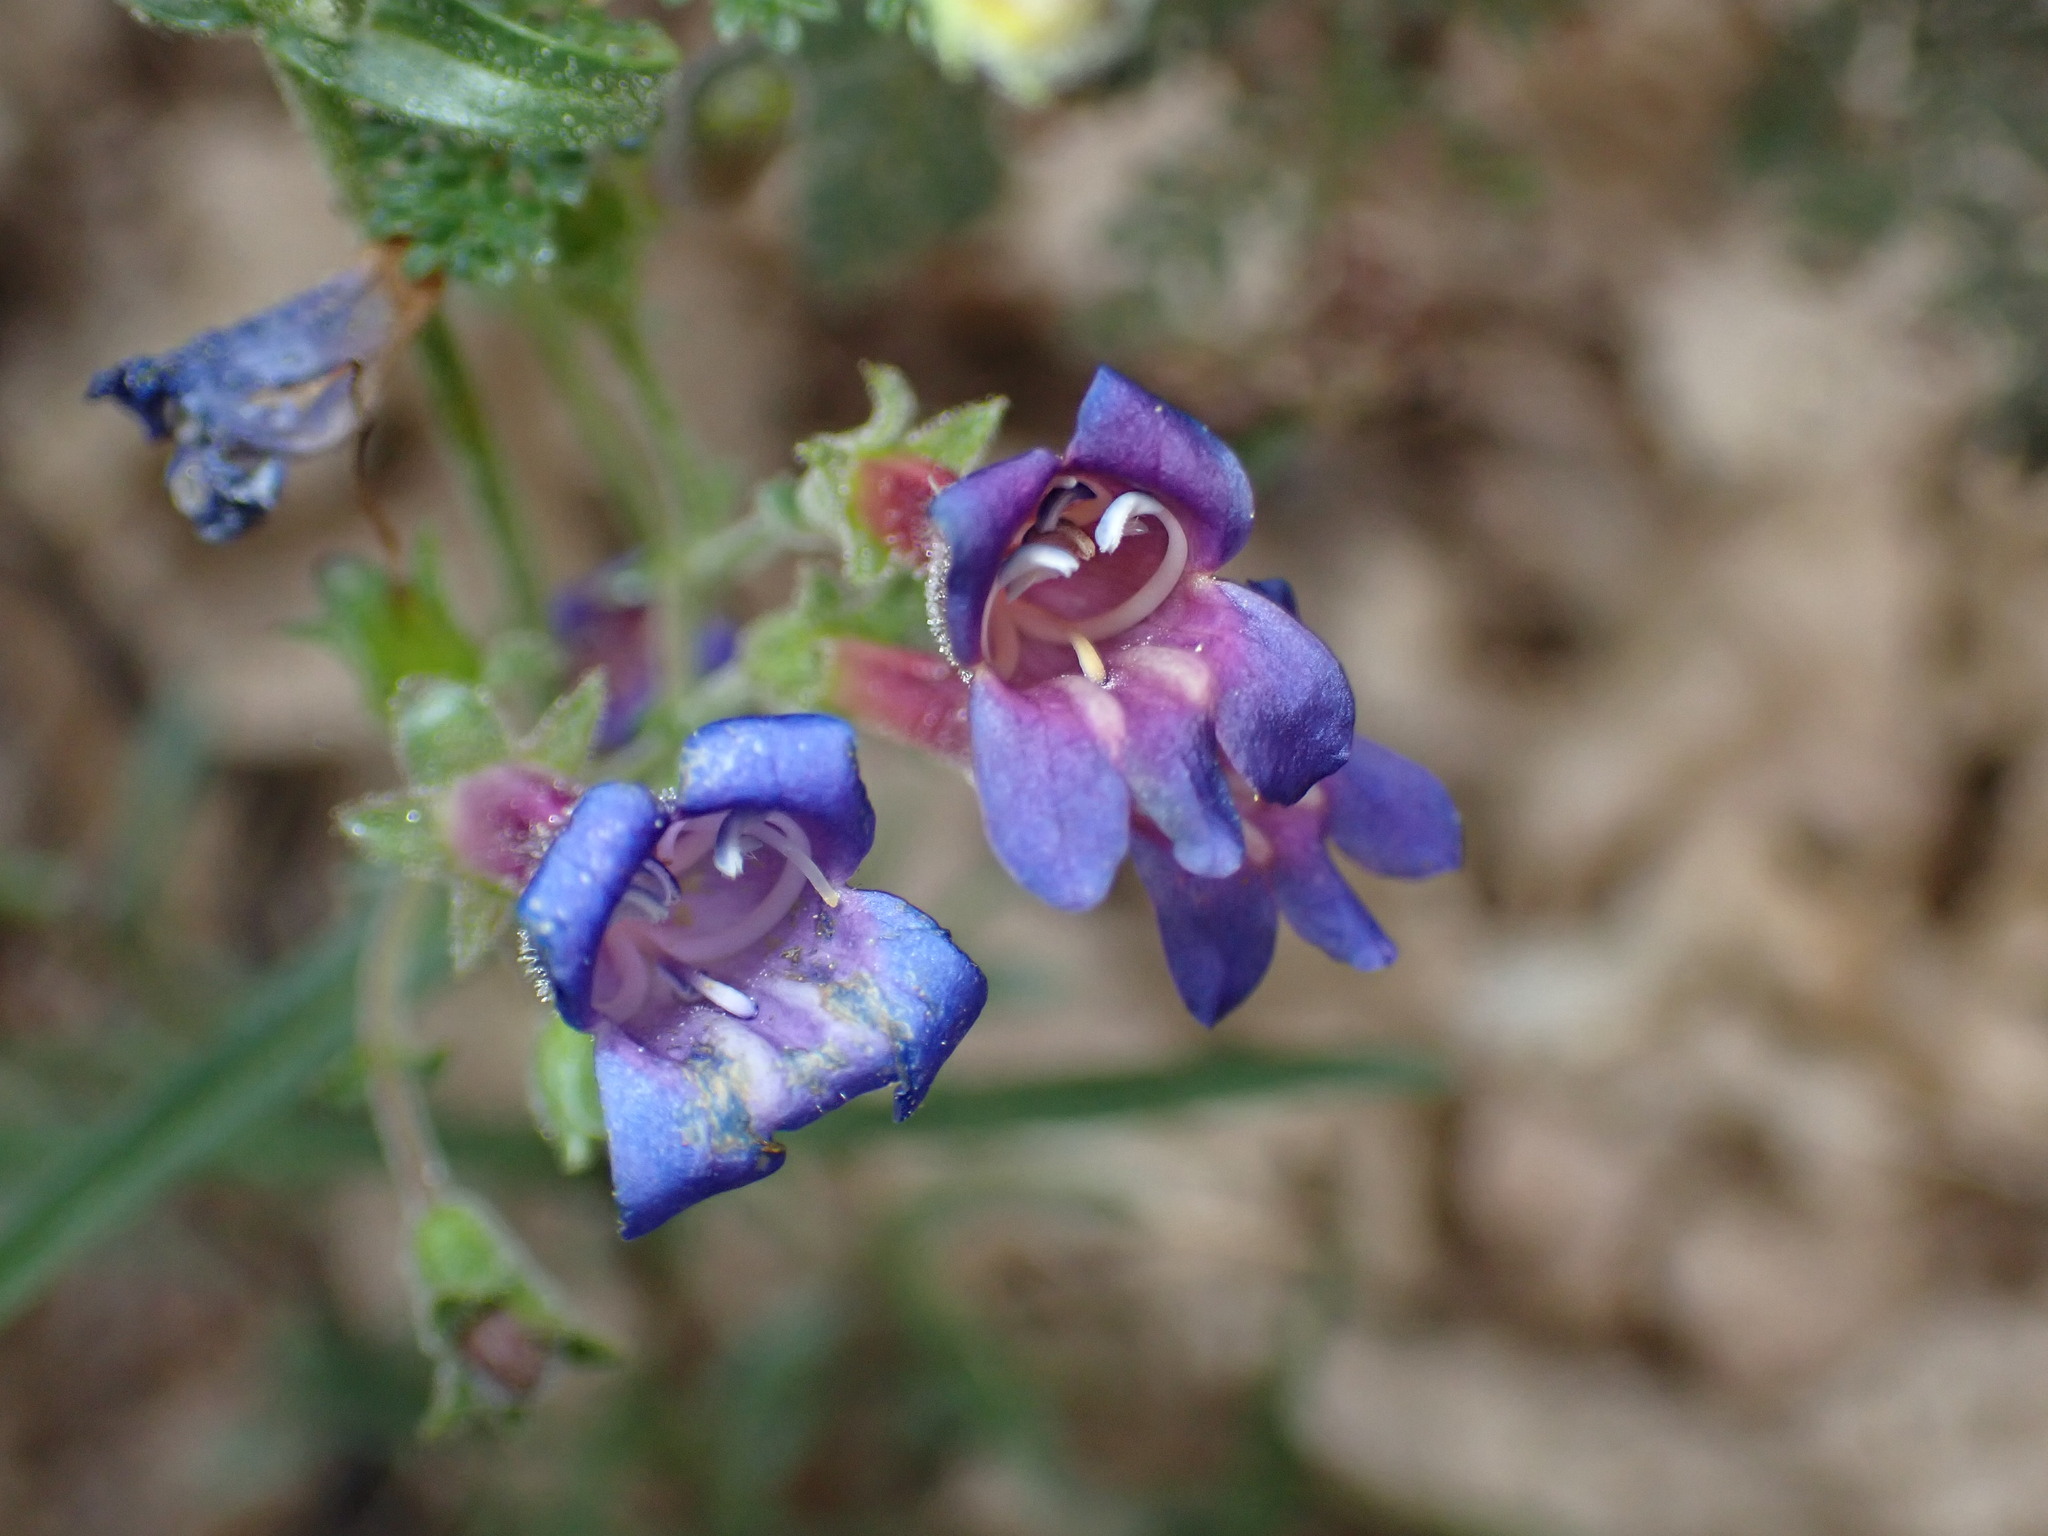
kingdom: Plantae
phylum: Tracheophyta
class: Magnoliopsida
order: Lamiales
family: Plantaginaceae
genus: Penstemon
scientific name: Penstemon laetus
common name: Gay penstemon
